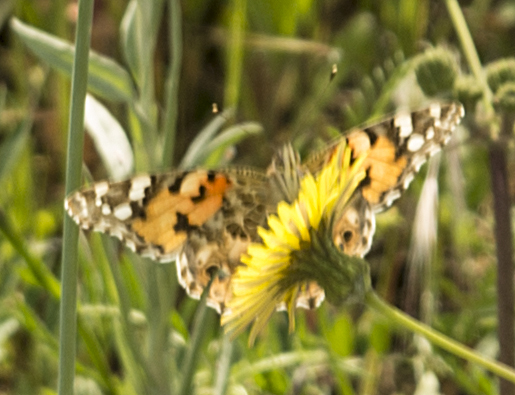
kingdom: Animalia
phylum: Arthropoda
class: Insecta
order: Lepidoptera
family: Nymphalidae
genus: Vanessa
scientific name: Vanessa cardui
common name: Painted lady
